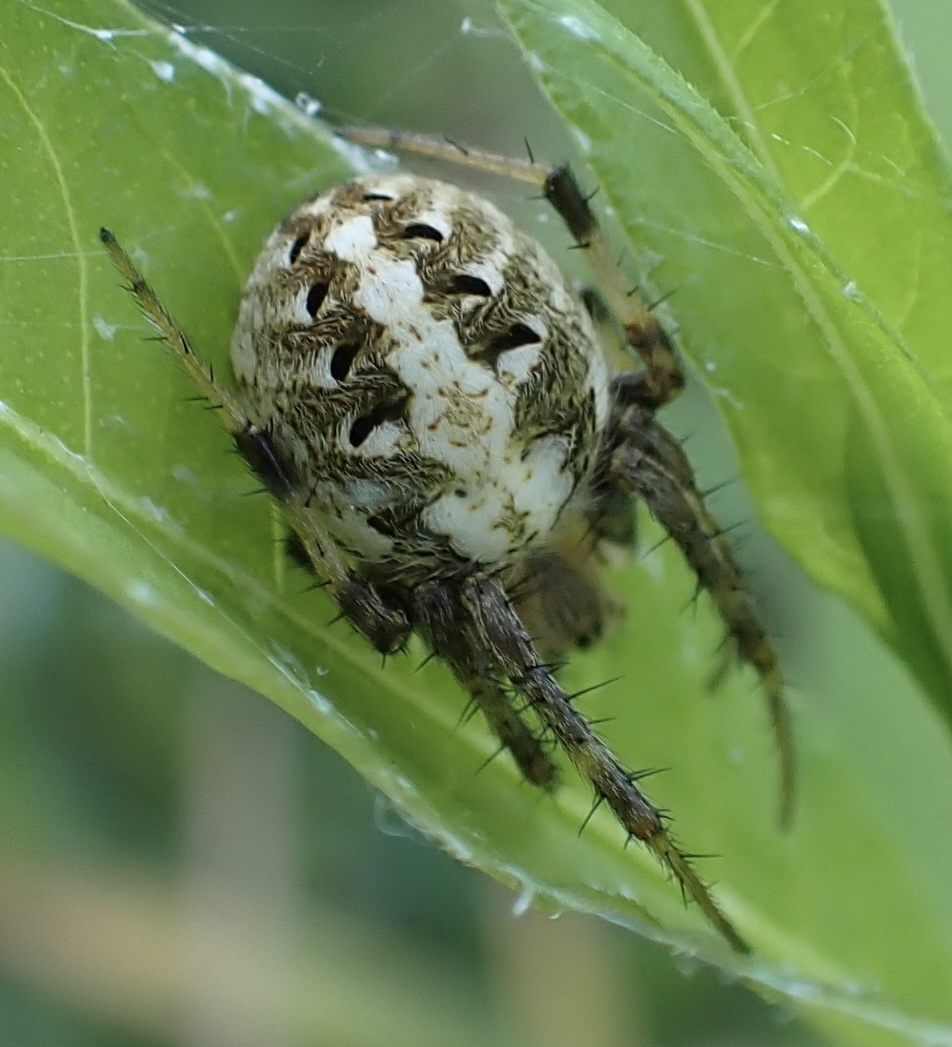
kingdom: Animalia
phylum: Arthropoda
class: Arachnida
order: Araneae
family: Araneidae
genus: Neoscona
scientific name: Neoscona arabesca
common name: Orb weavers
